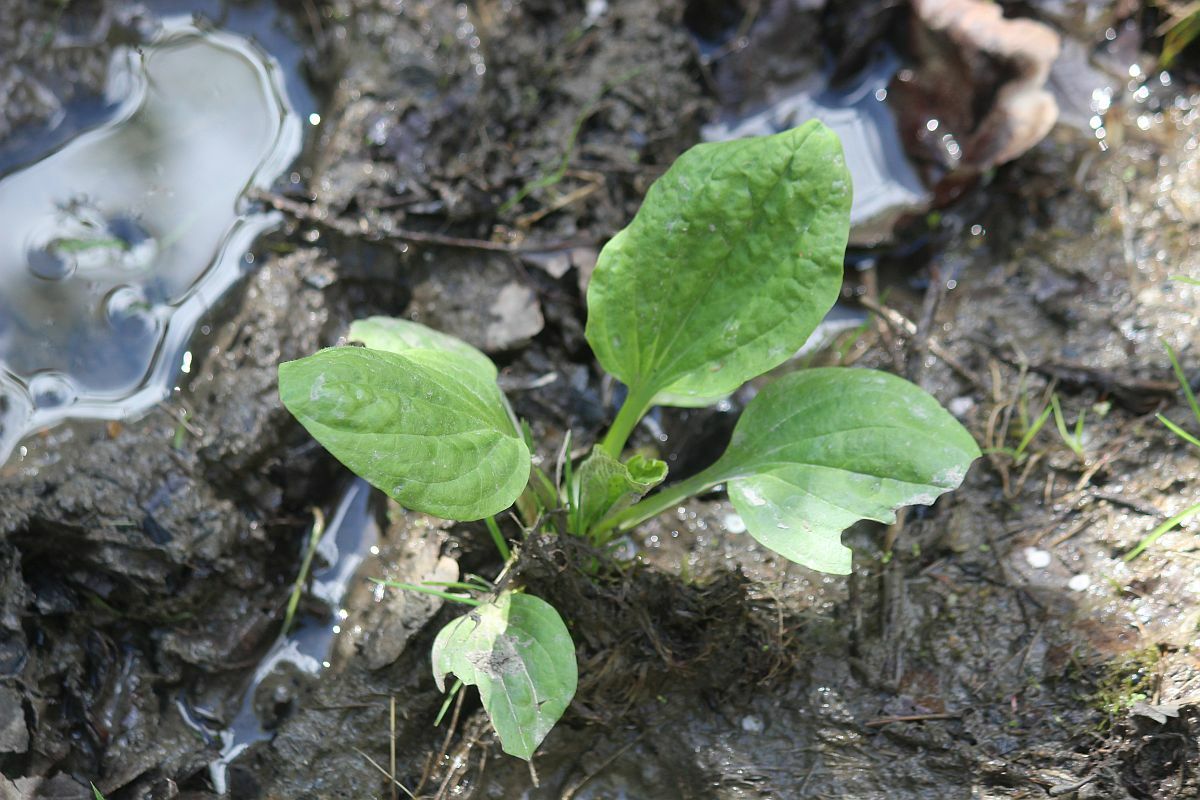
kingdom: Plantae
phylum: Tracheophyta
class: Magnoliopsida
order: Lamiales
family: Plantaginaceae
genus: Plantago
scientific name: Plantago major
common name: Common plantain
